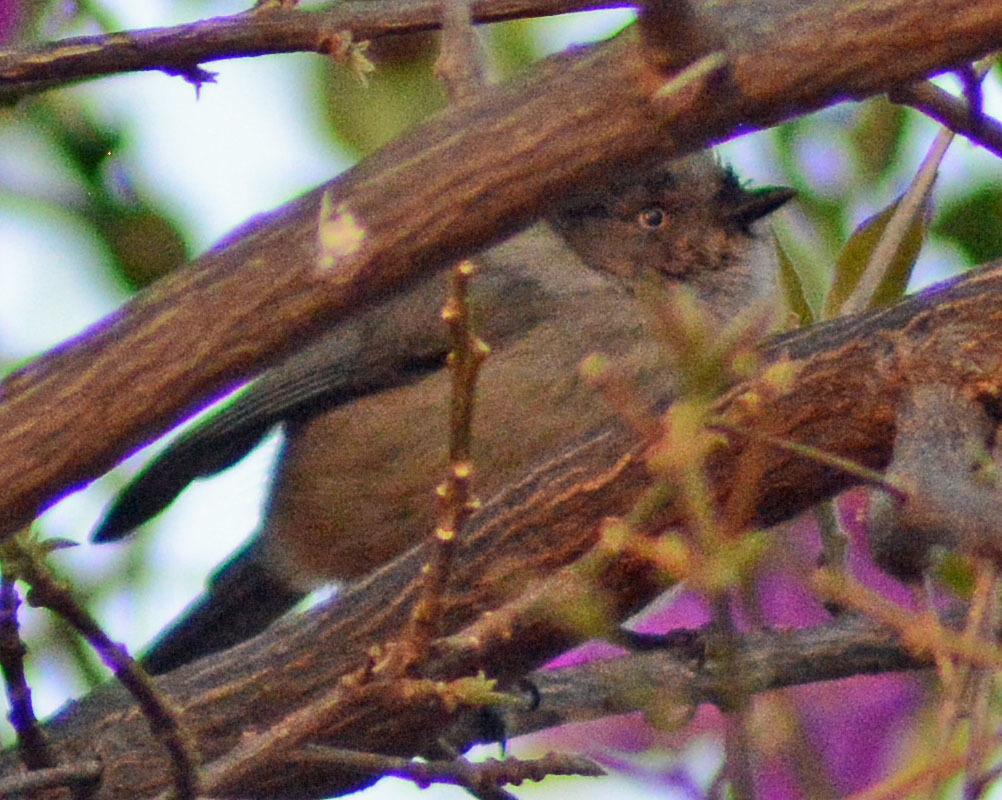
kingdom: Animalia
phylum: Chordata
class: Aves
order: Passeriformes
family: Aegithalidae
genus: Psaltriparus
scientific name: Psaltriparus minimus
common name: American bushtit
